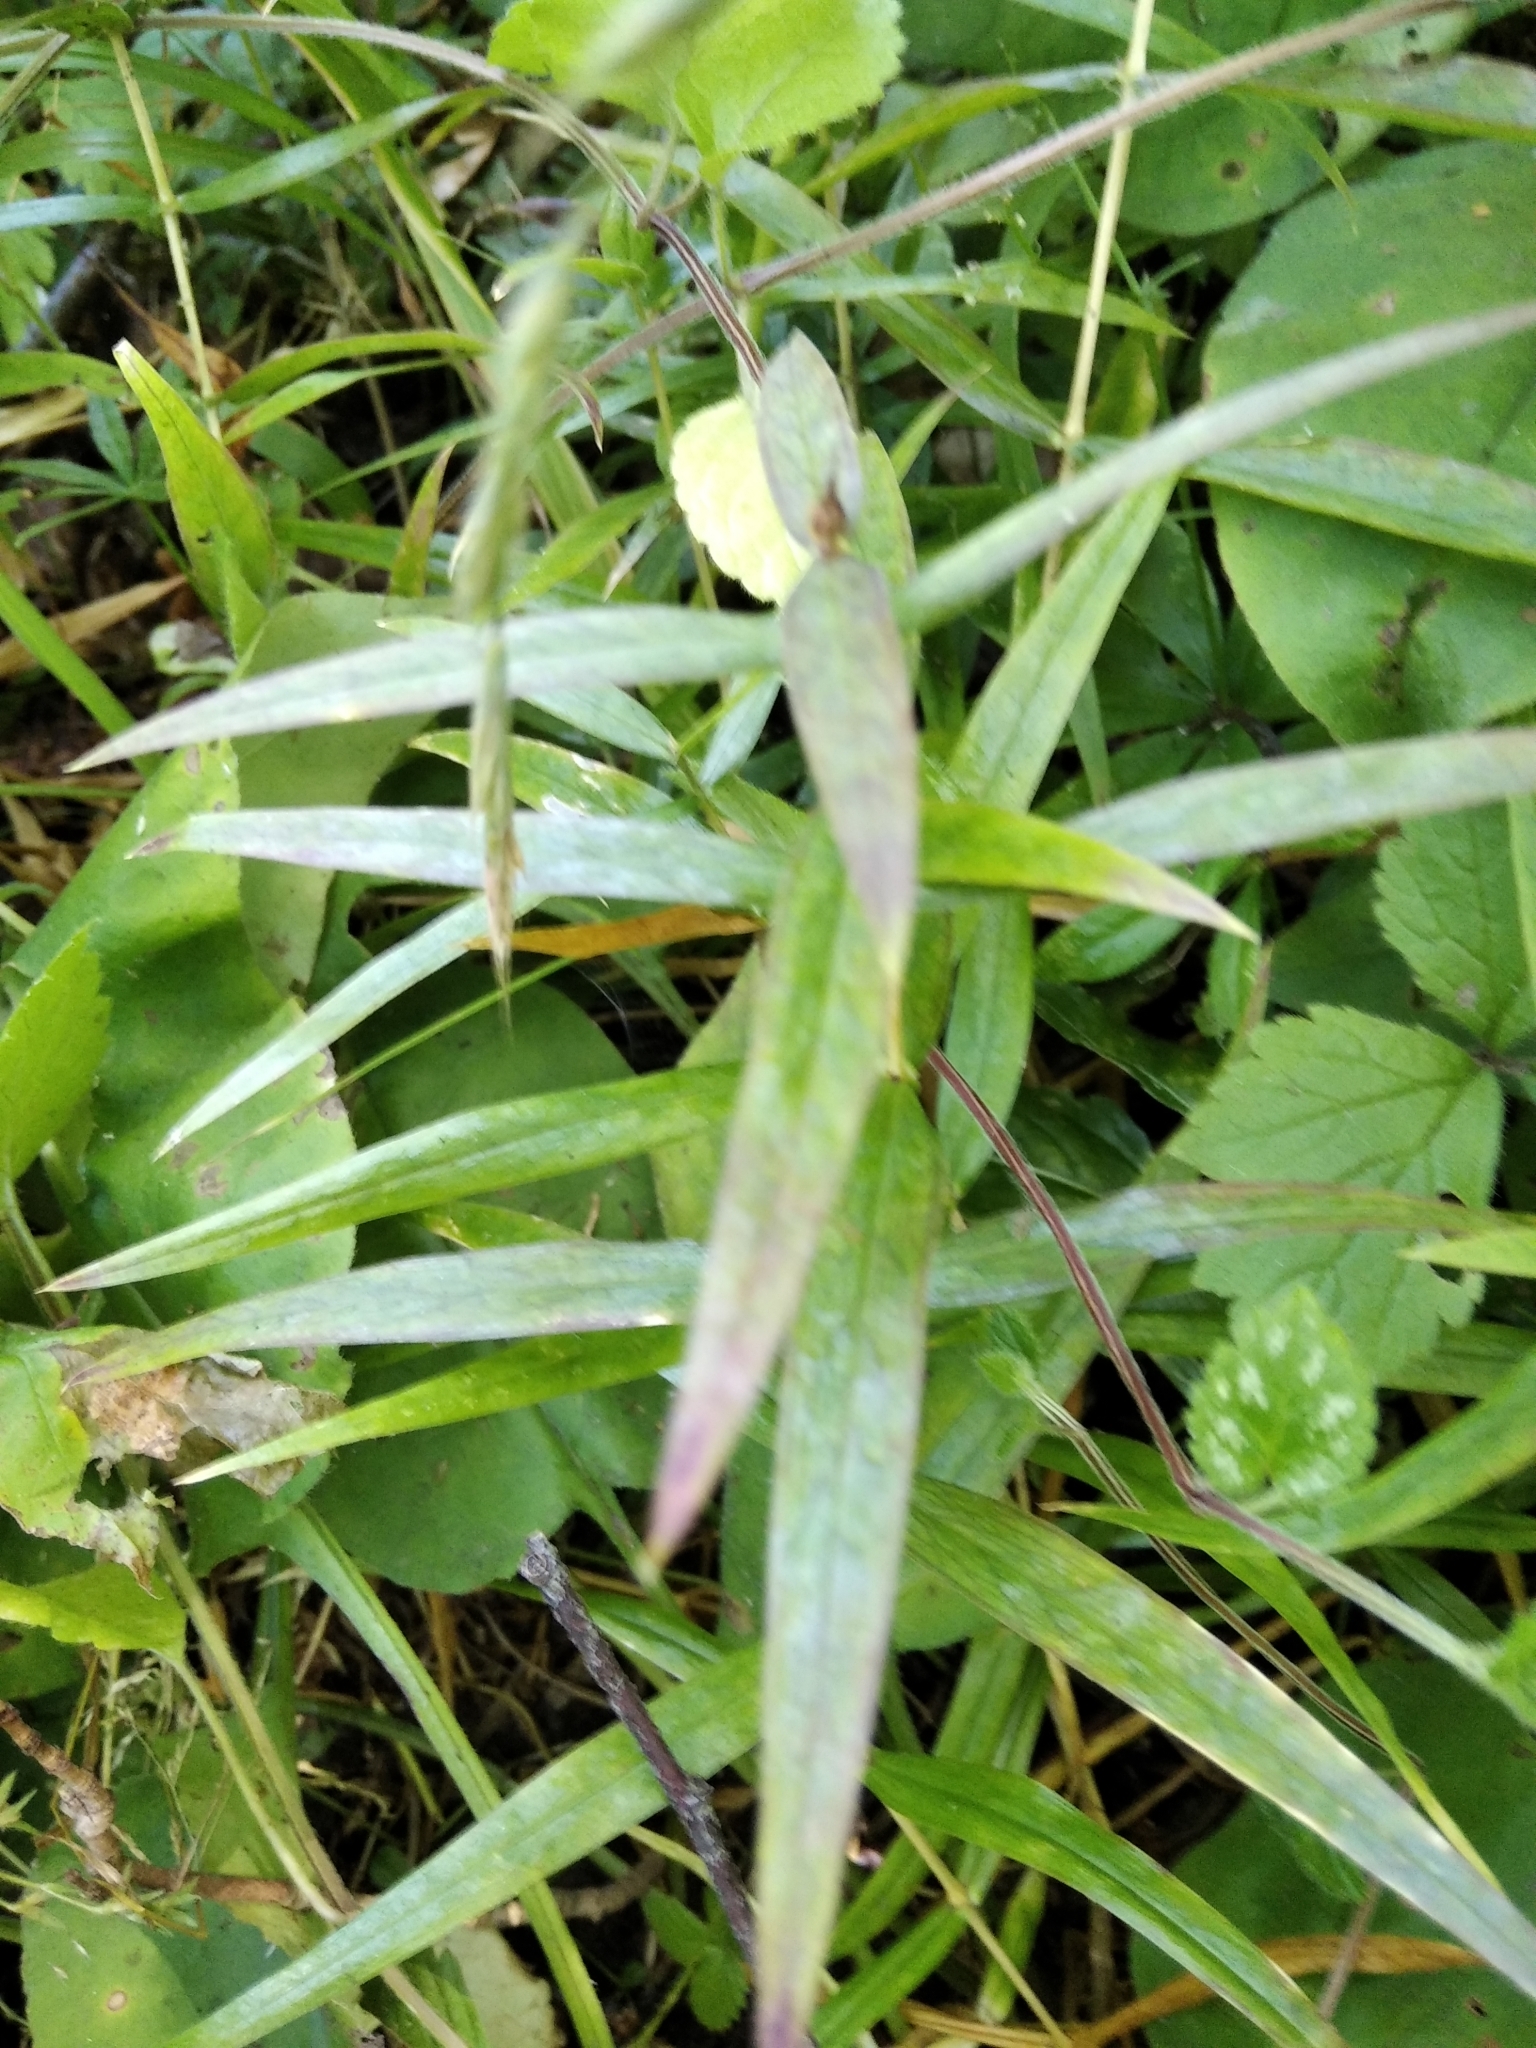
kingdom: Plantae
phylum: Tracheophyta
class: Magnoliopsida
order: Caryophyllales
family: Caryophyllaceae
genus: Rabelera
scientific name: Rabelera holostea
